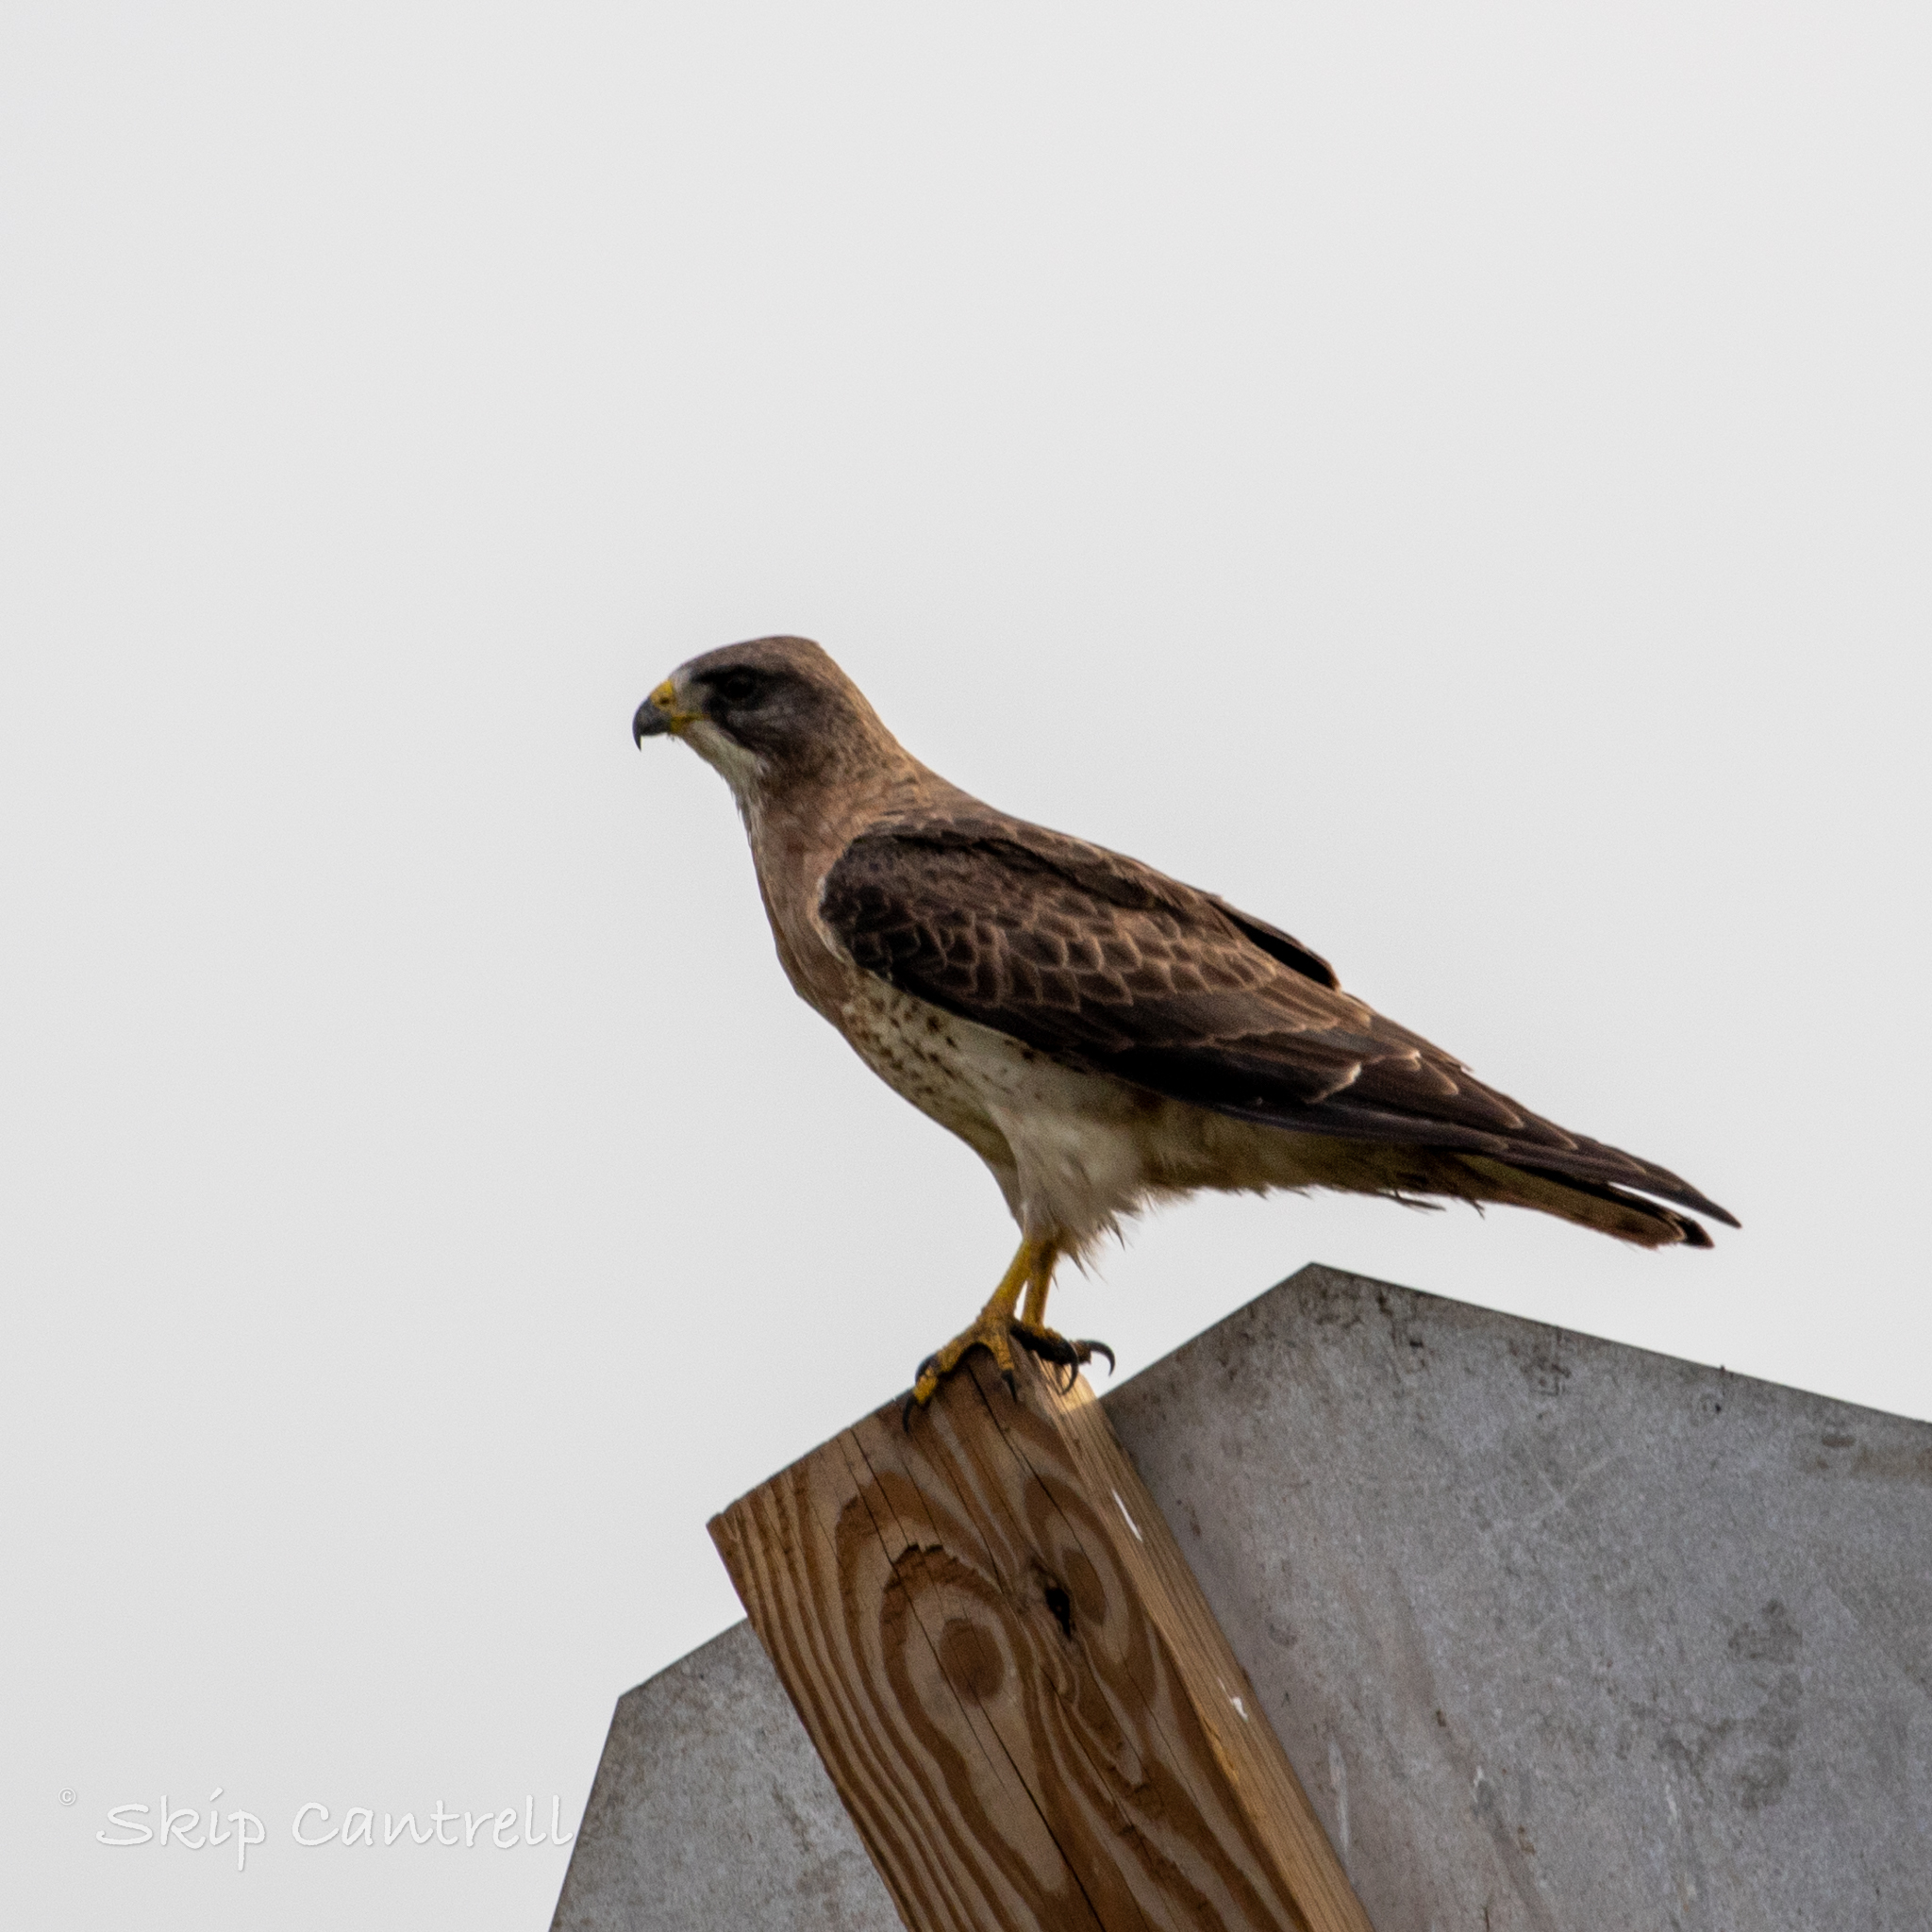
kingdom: Animalia
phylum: Chordata
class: Aves
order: Accipitriformes
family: Accipitridae
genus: Buteo
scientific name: Buteo swainsoni
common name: Swainson's hawk
